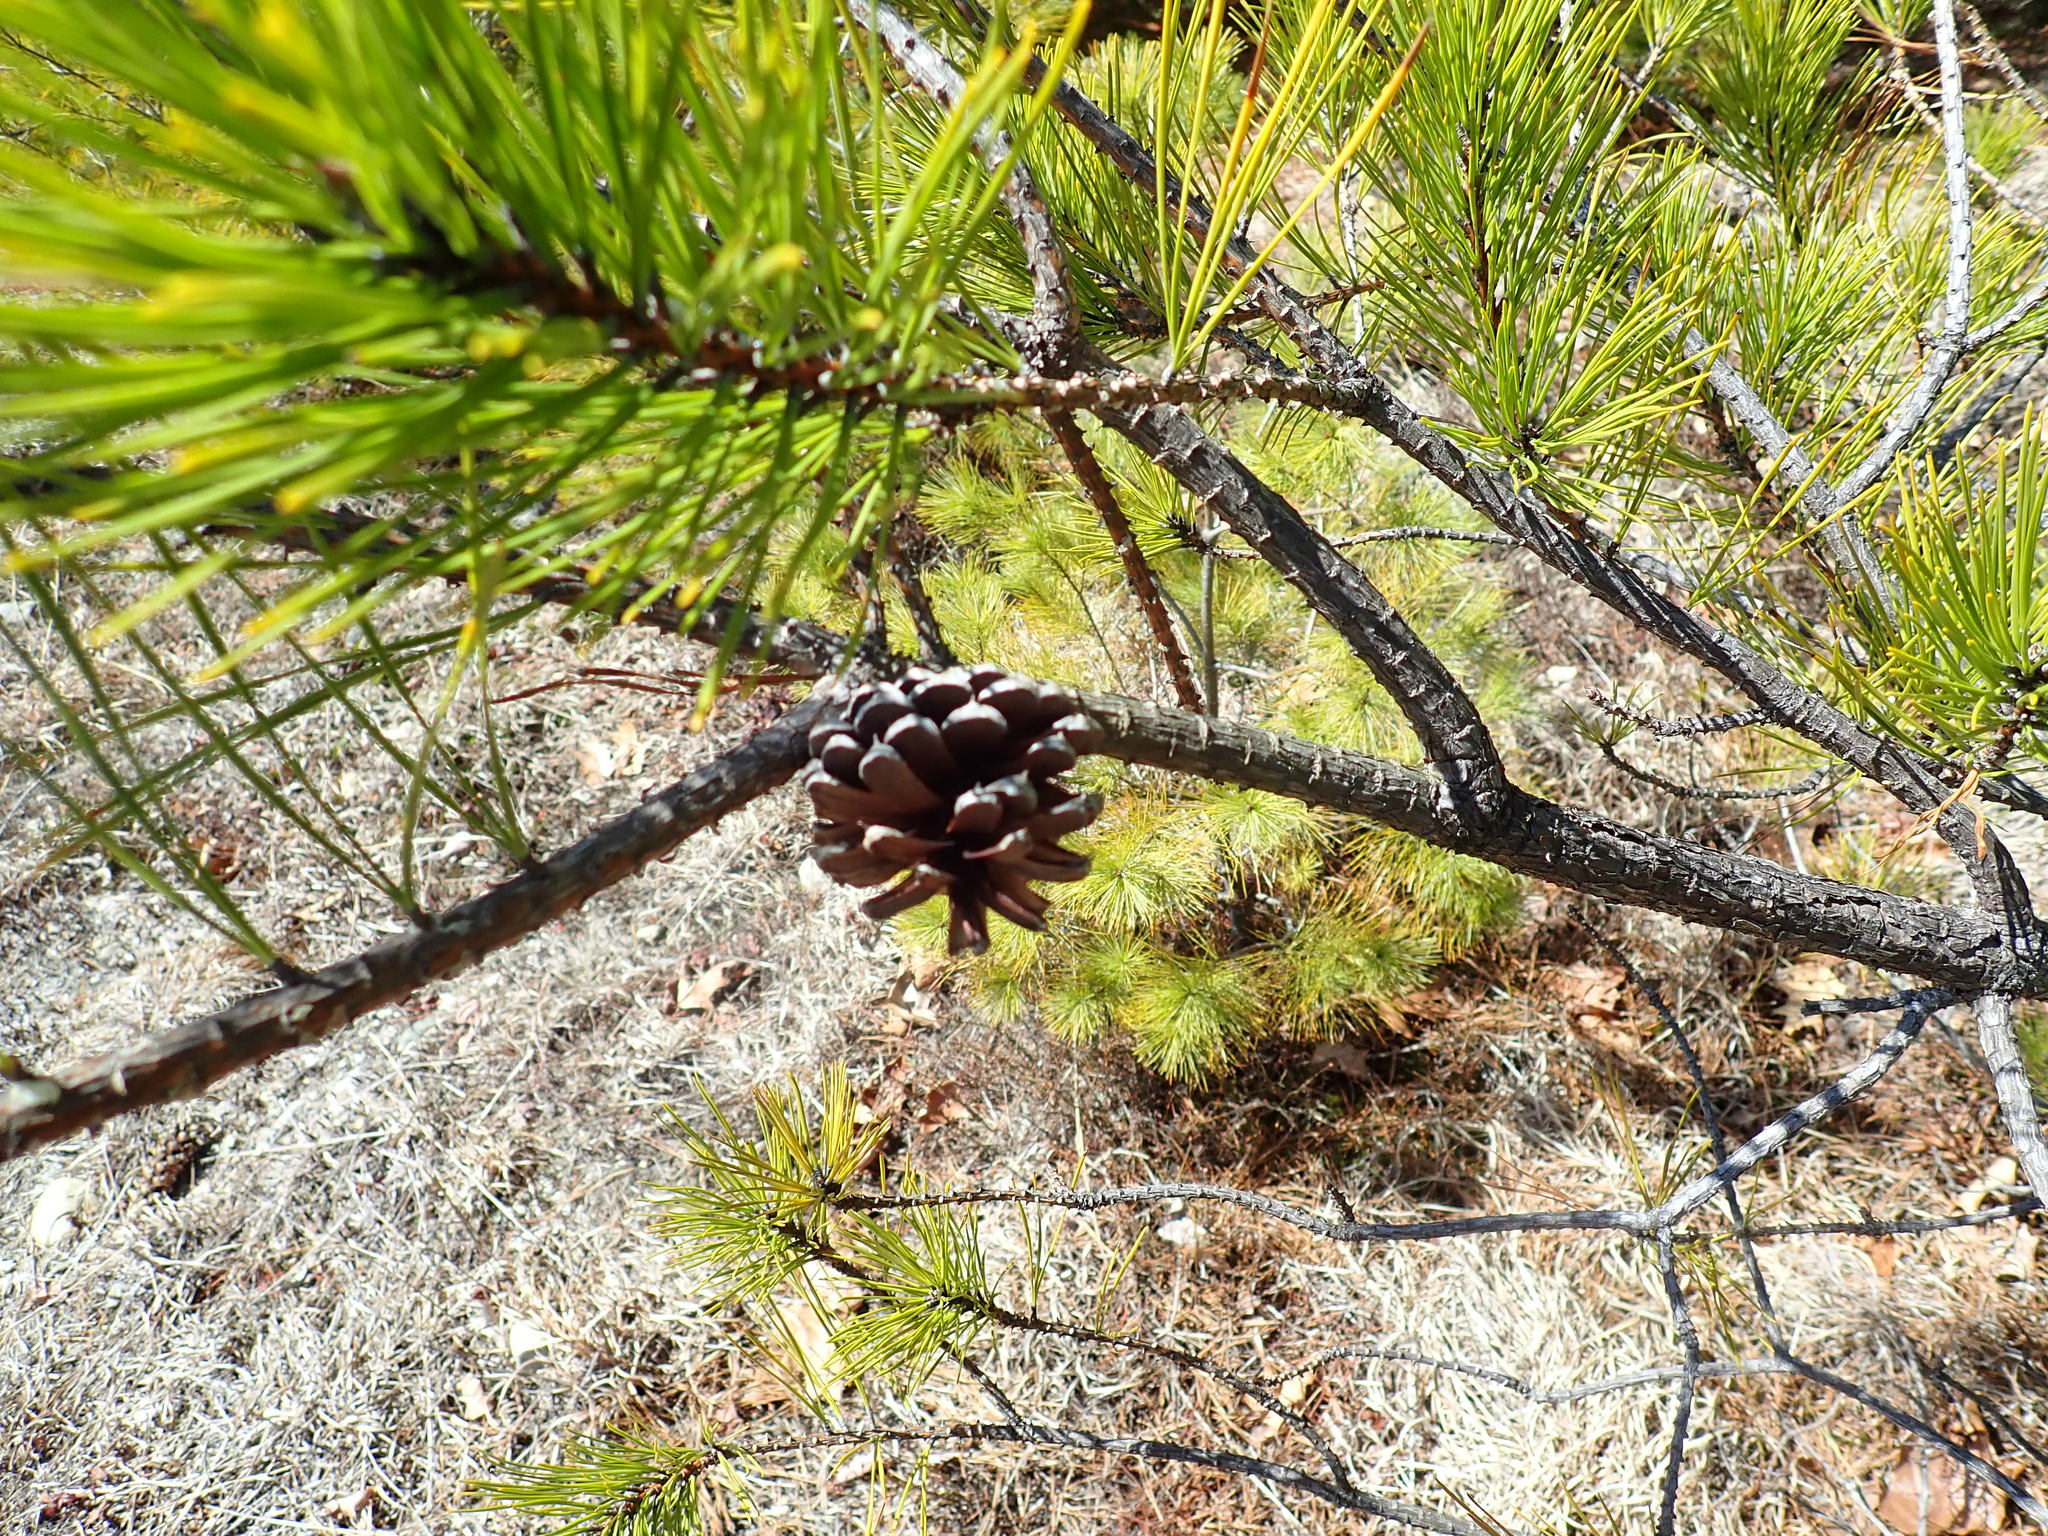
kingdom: Plantae
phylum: Tracheophyta
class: Pinopsida
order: Pinales
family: Pinaceae
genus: Pinus
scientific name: Pinus rigida
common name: Pitch pine
